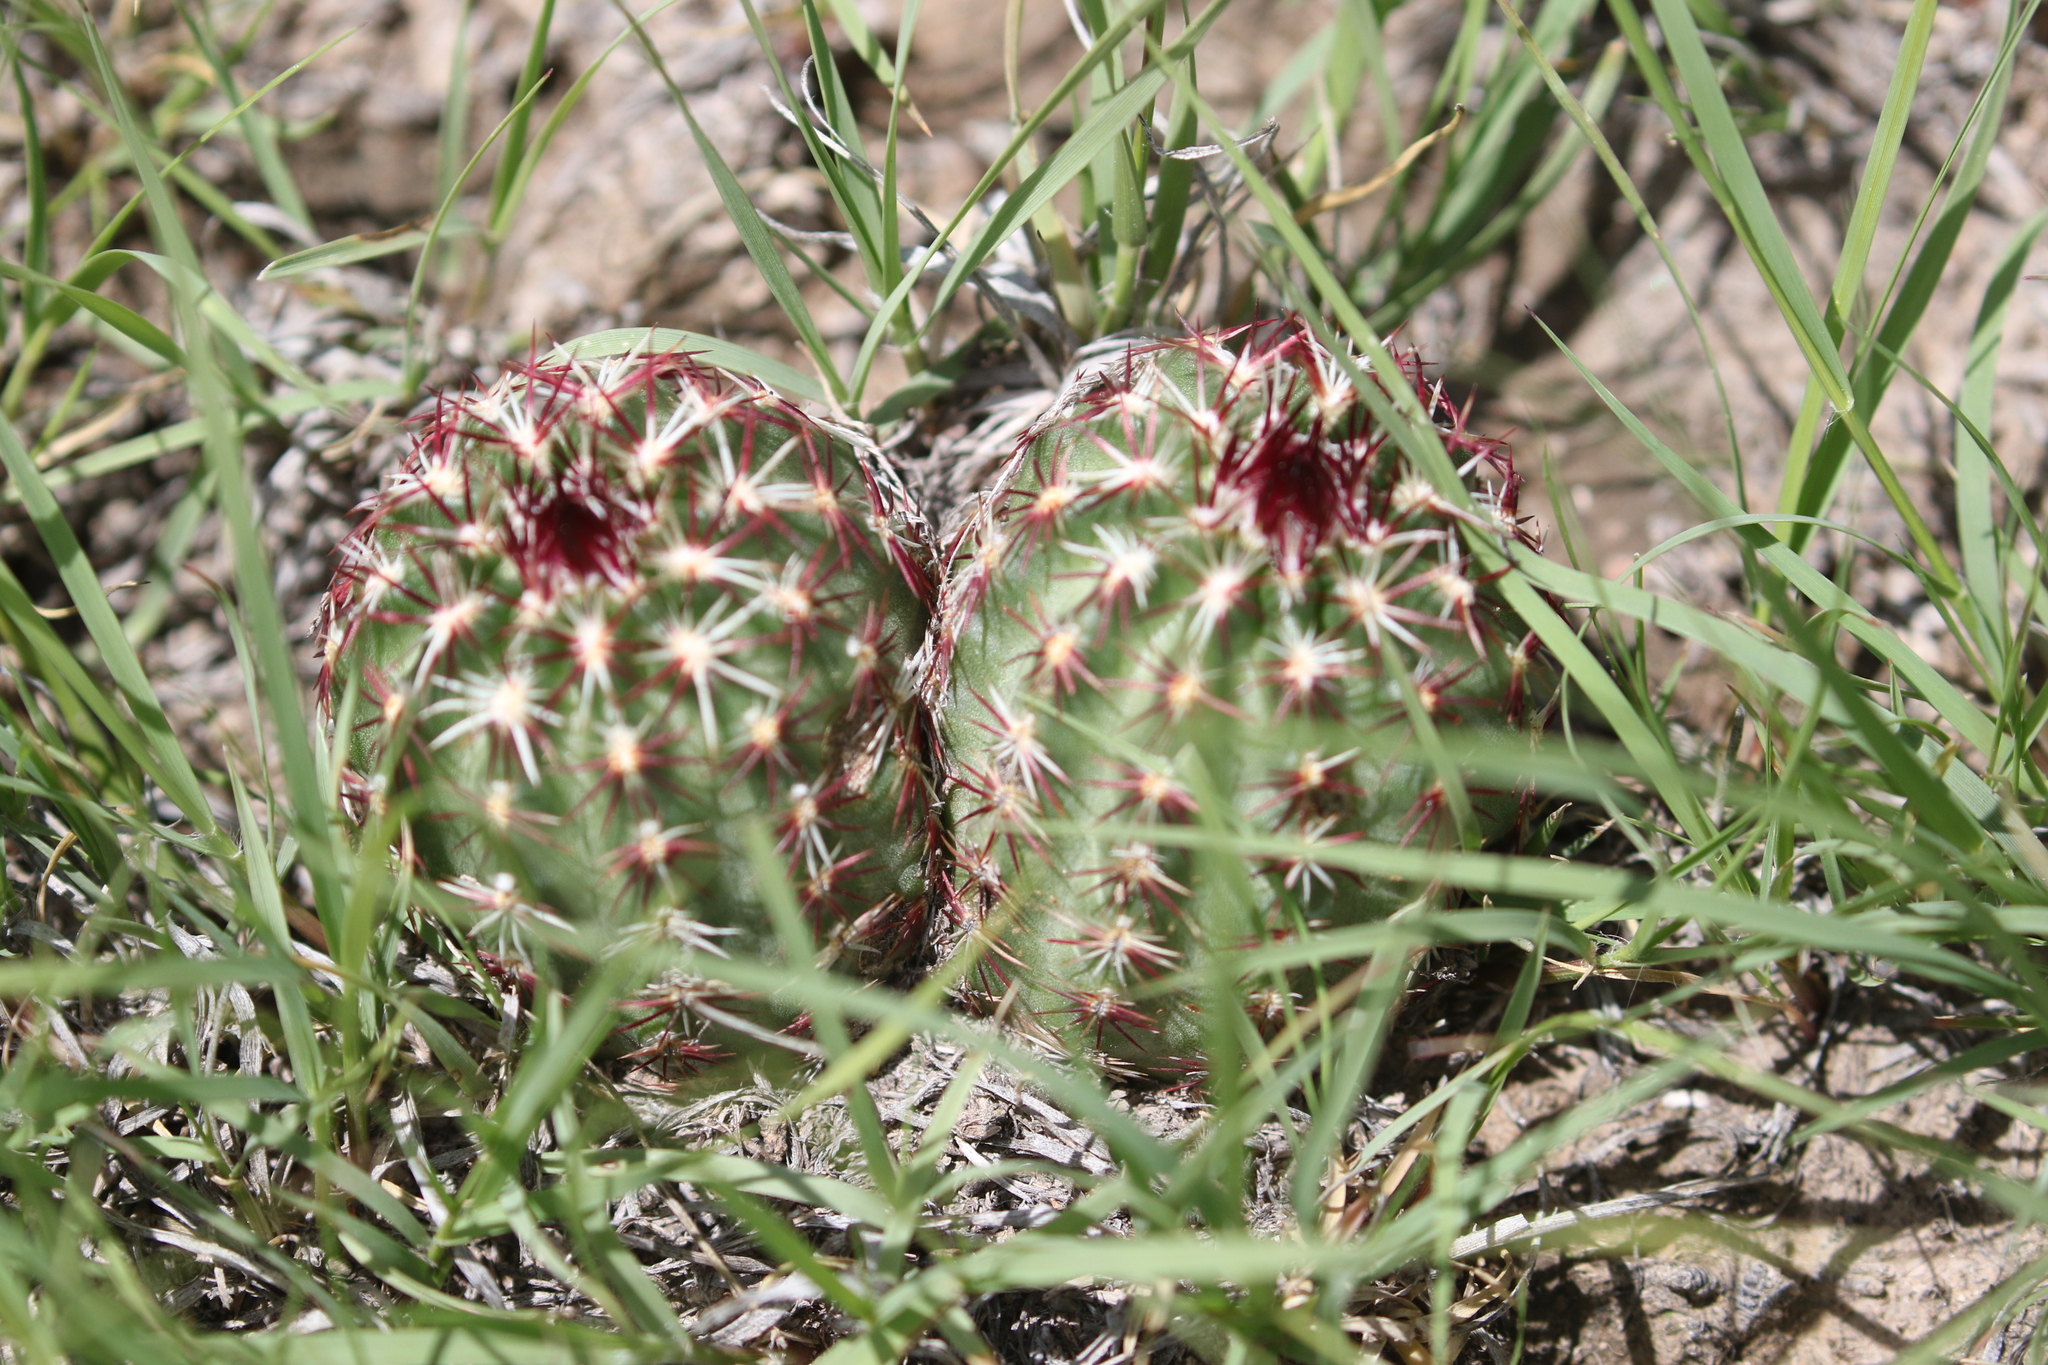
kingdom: Plantae
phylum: Tracheophyta
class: Magnoliopsida
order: Caryophyllales
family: Cactaceae
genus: Echinocereus
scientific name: Echinocereus viridiflorus
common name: Nylon hedgehog cactus
